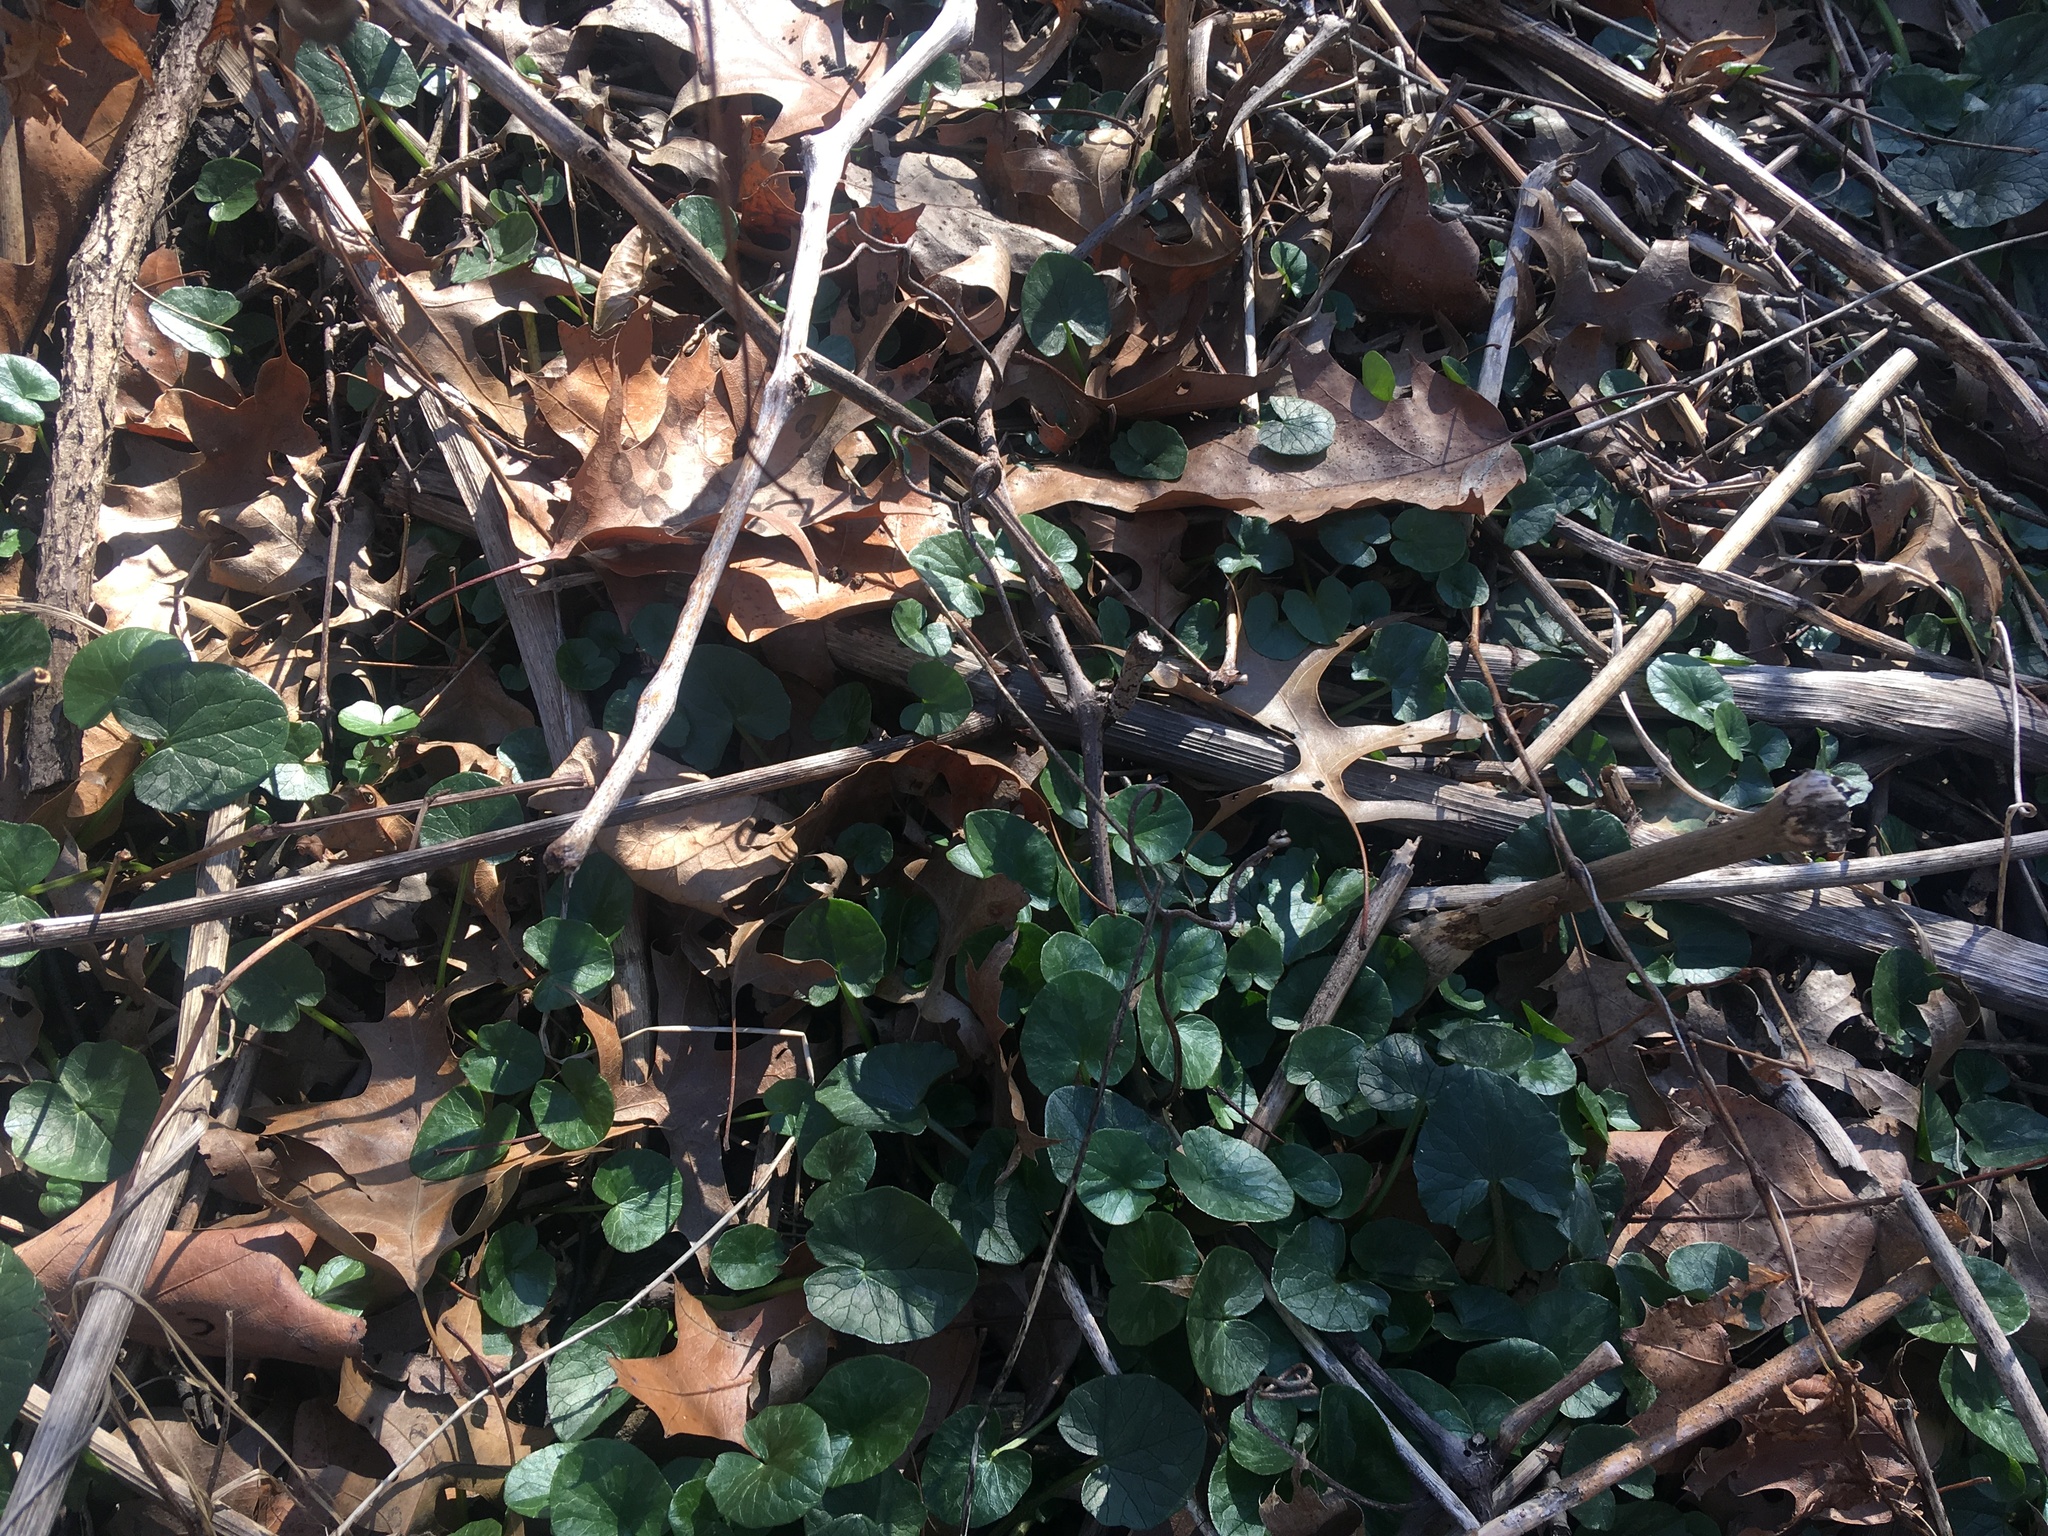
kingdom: Plantae
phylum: Tracheophyta
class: Magnoliopsida
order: Ranunculales
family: Ranunculaceae
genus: Ficaria
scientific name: Ficaria verna
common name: Lesser celandine
